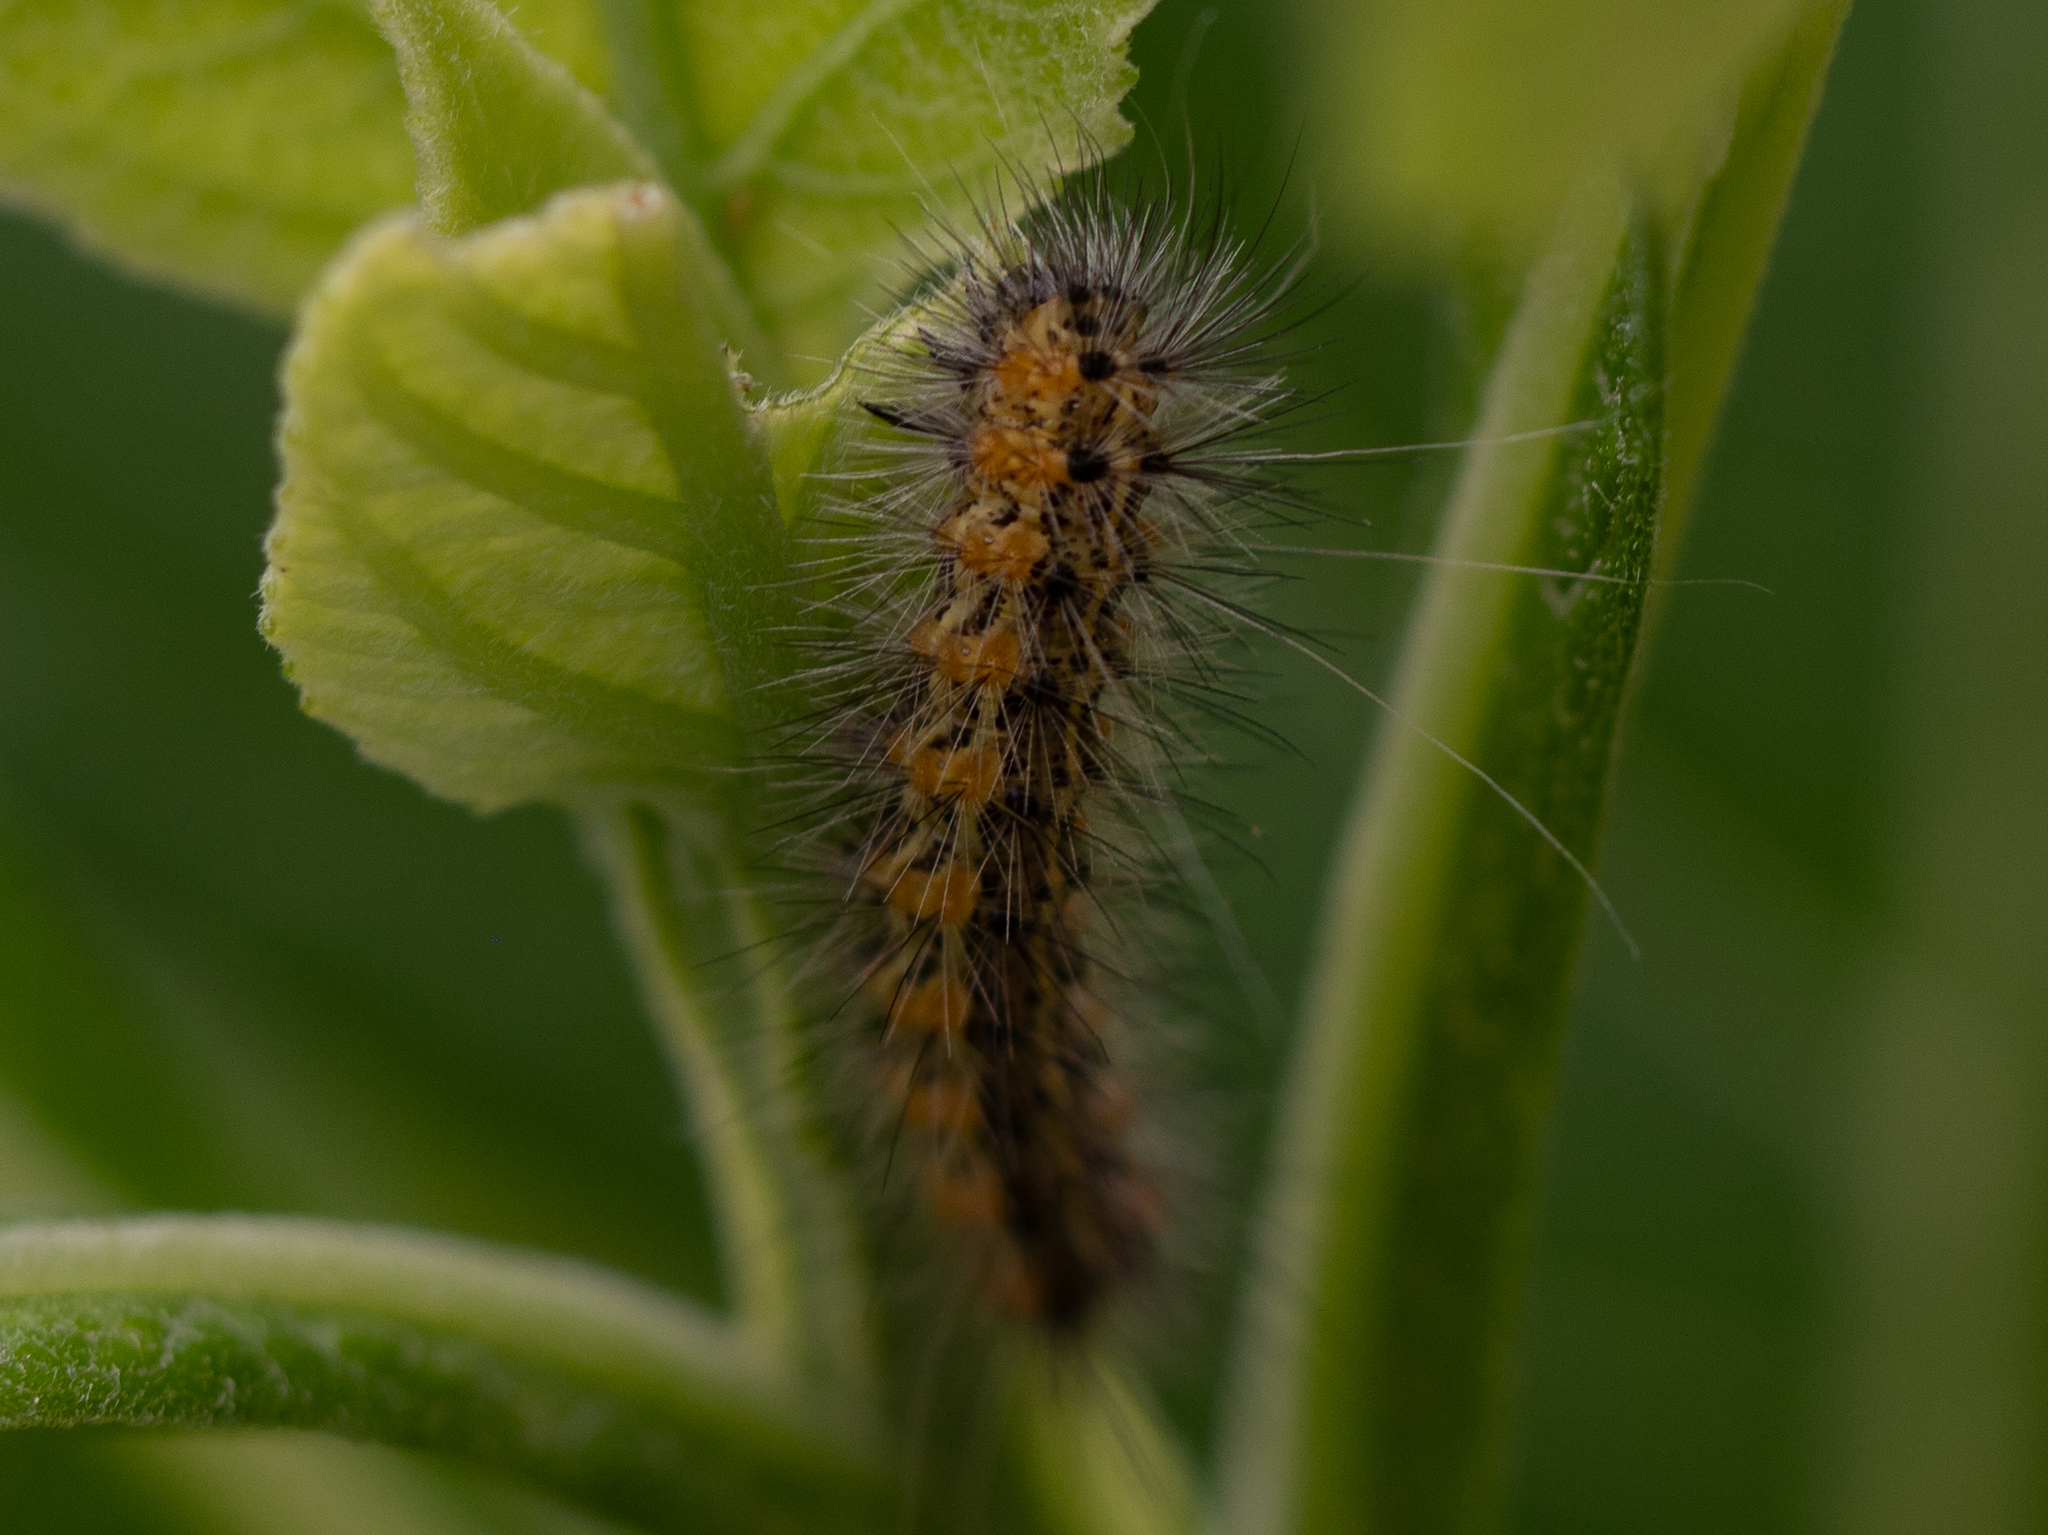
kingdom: Animalia
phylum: Arthropoda
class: Insecta
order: Lepidoptera
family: Erebidae
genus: Estigmene
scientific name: Estigmene acrea
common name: Salt marsh moth
